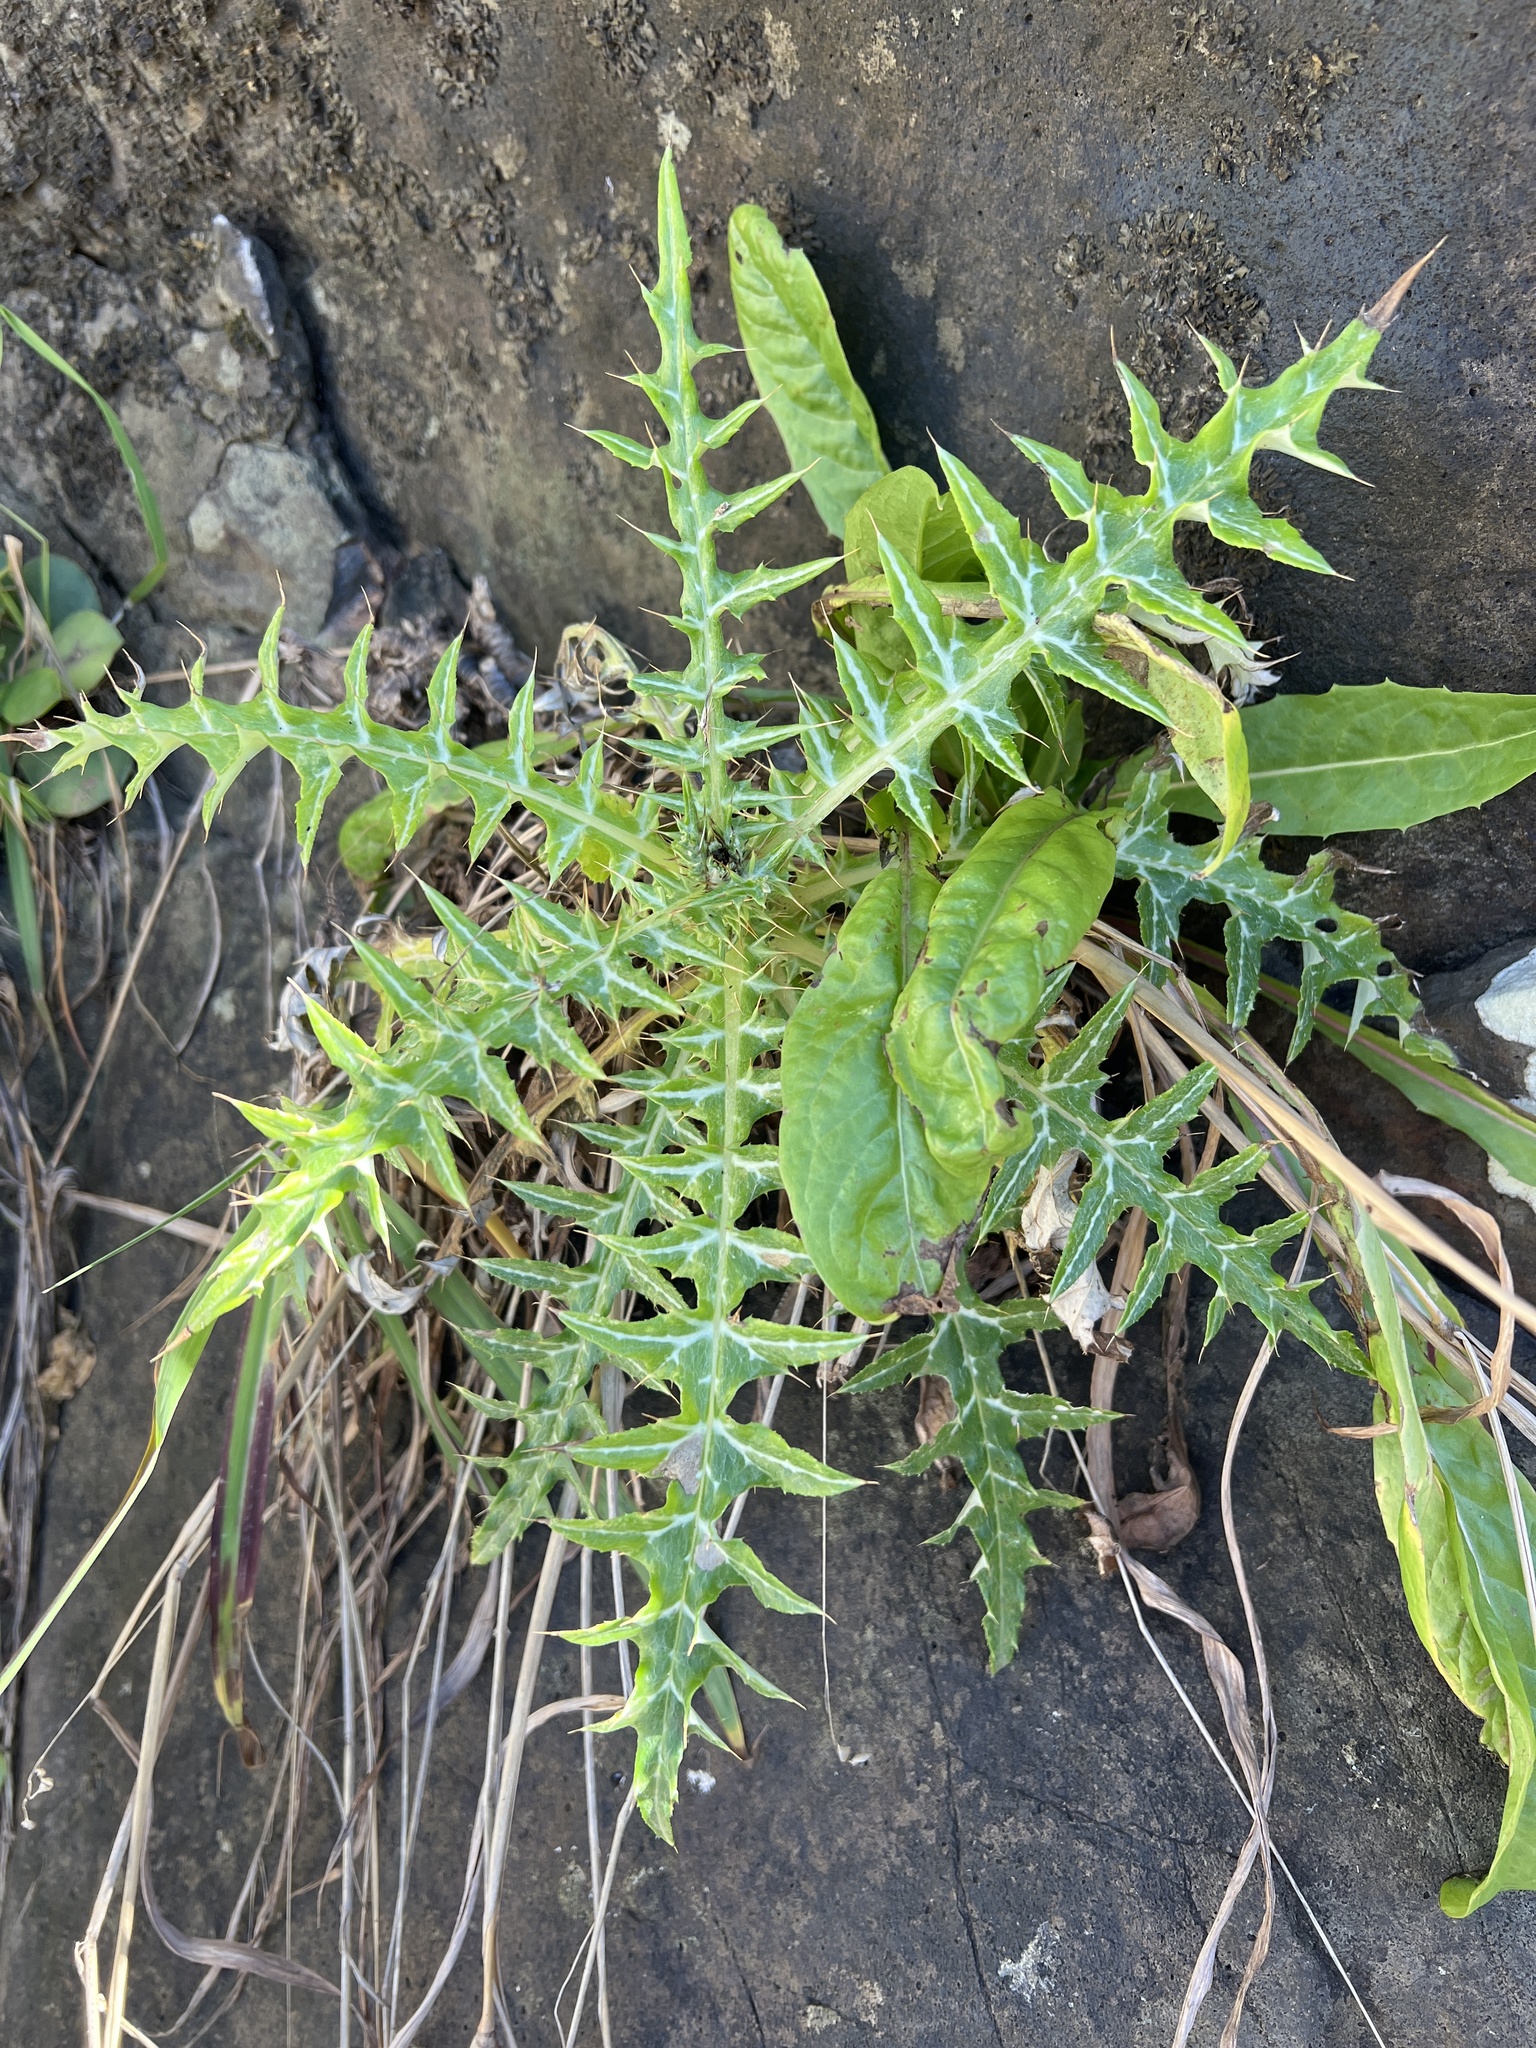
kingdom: Plantae
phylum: Tracheophyta
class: Magnoliopsida
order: Asterales
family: Asteraceae
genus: Galactites
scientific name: Galactites tomentosa
